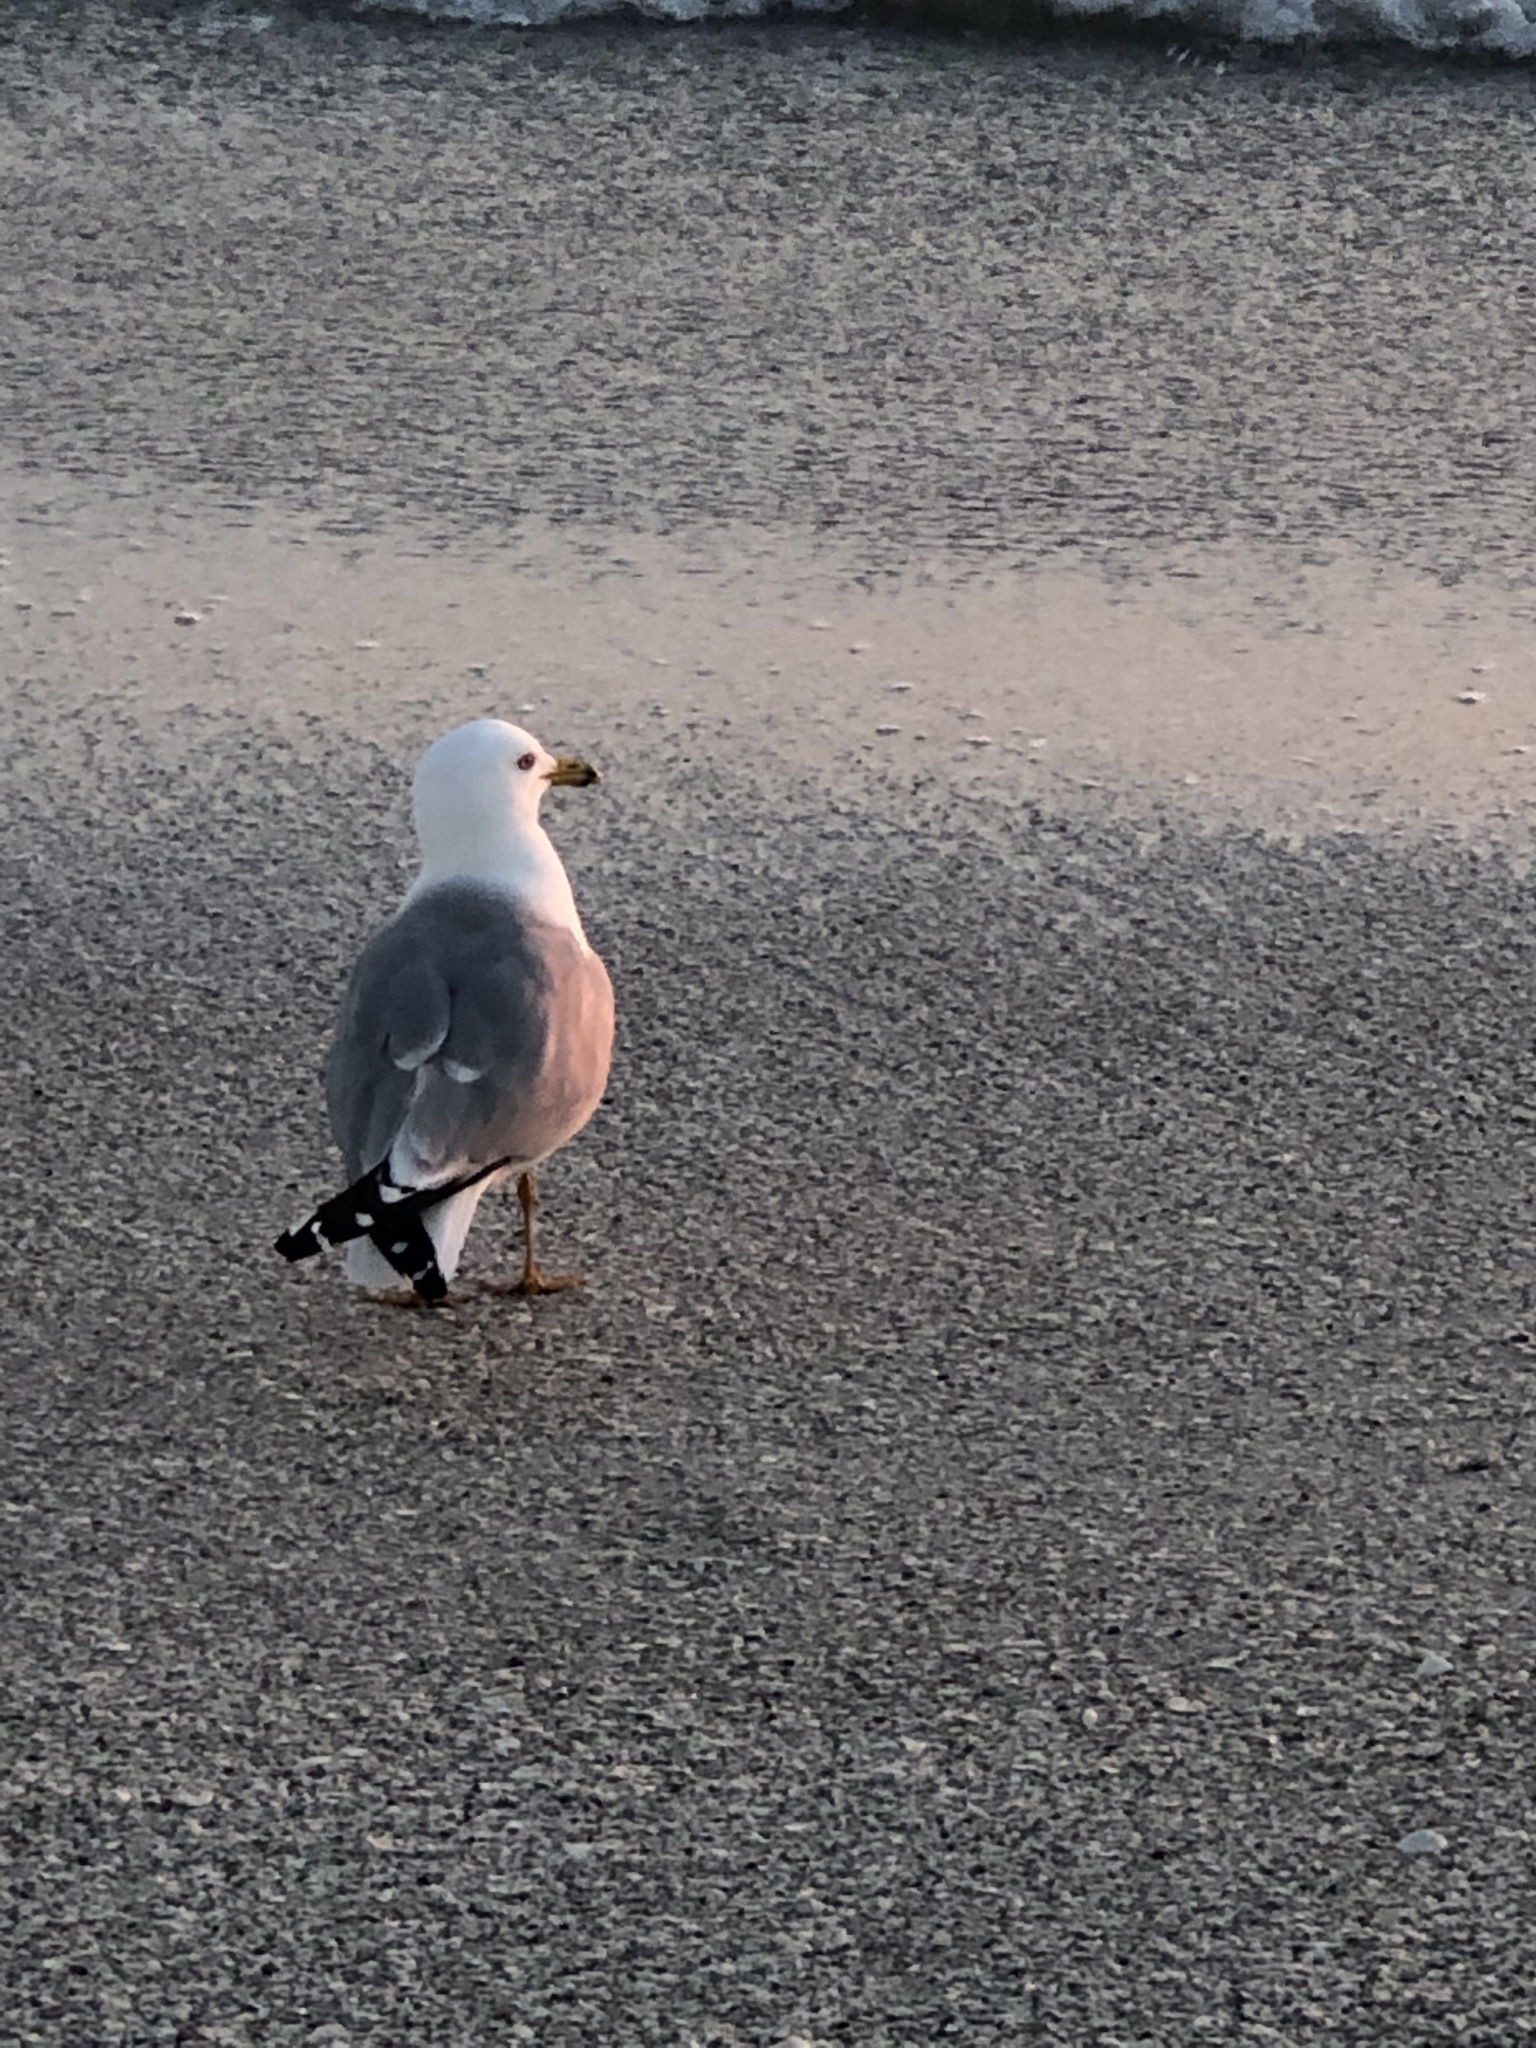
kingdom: Animalia
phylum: Chordata
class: Aves
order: Charadriiformes
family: Laridae
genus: Larus
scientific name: Larus delawarensis
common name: Ring-billed gull
